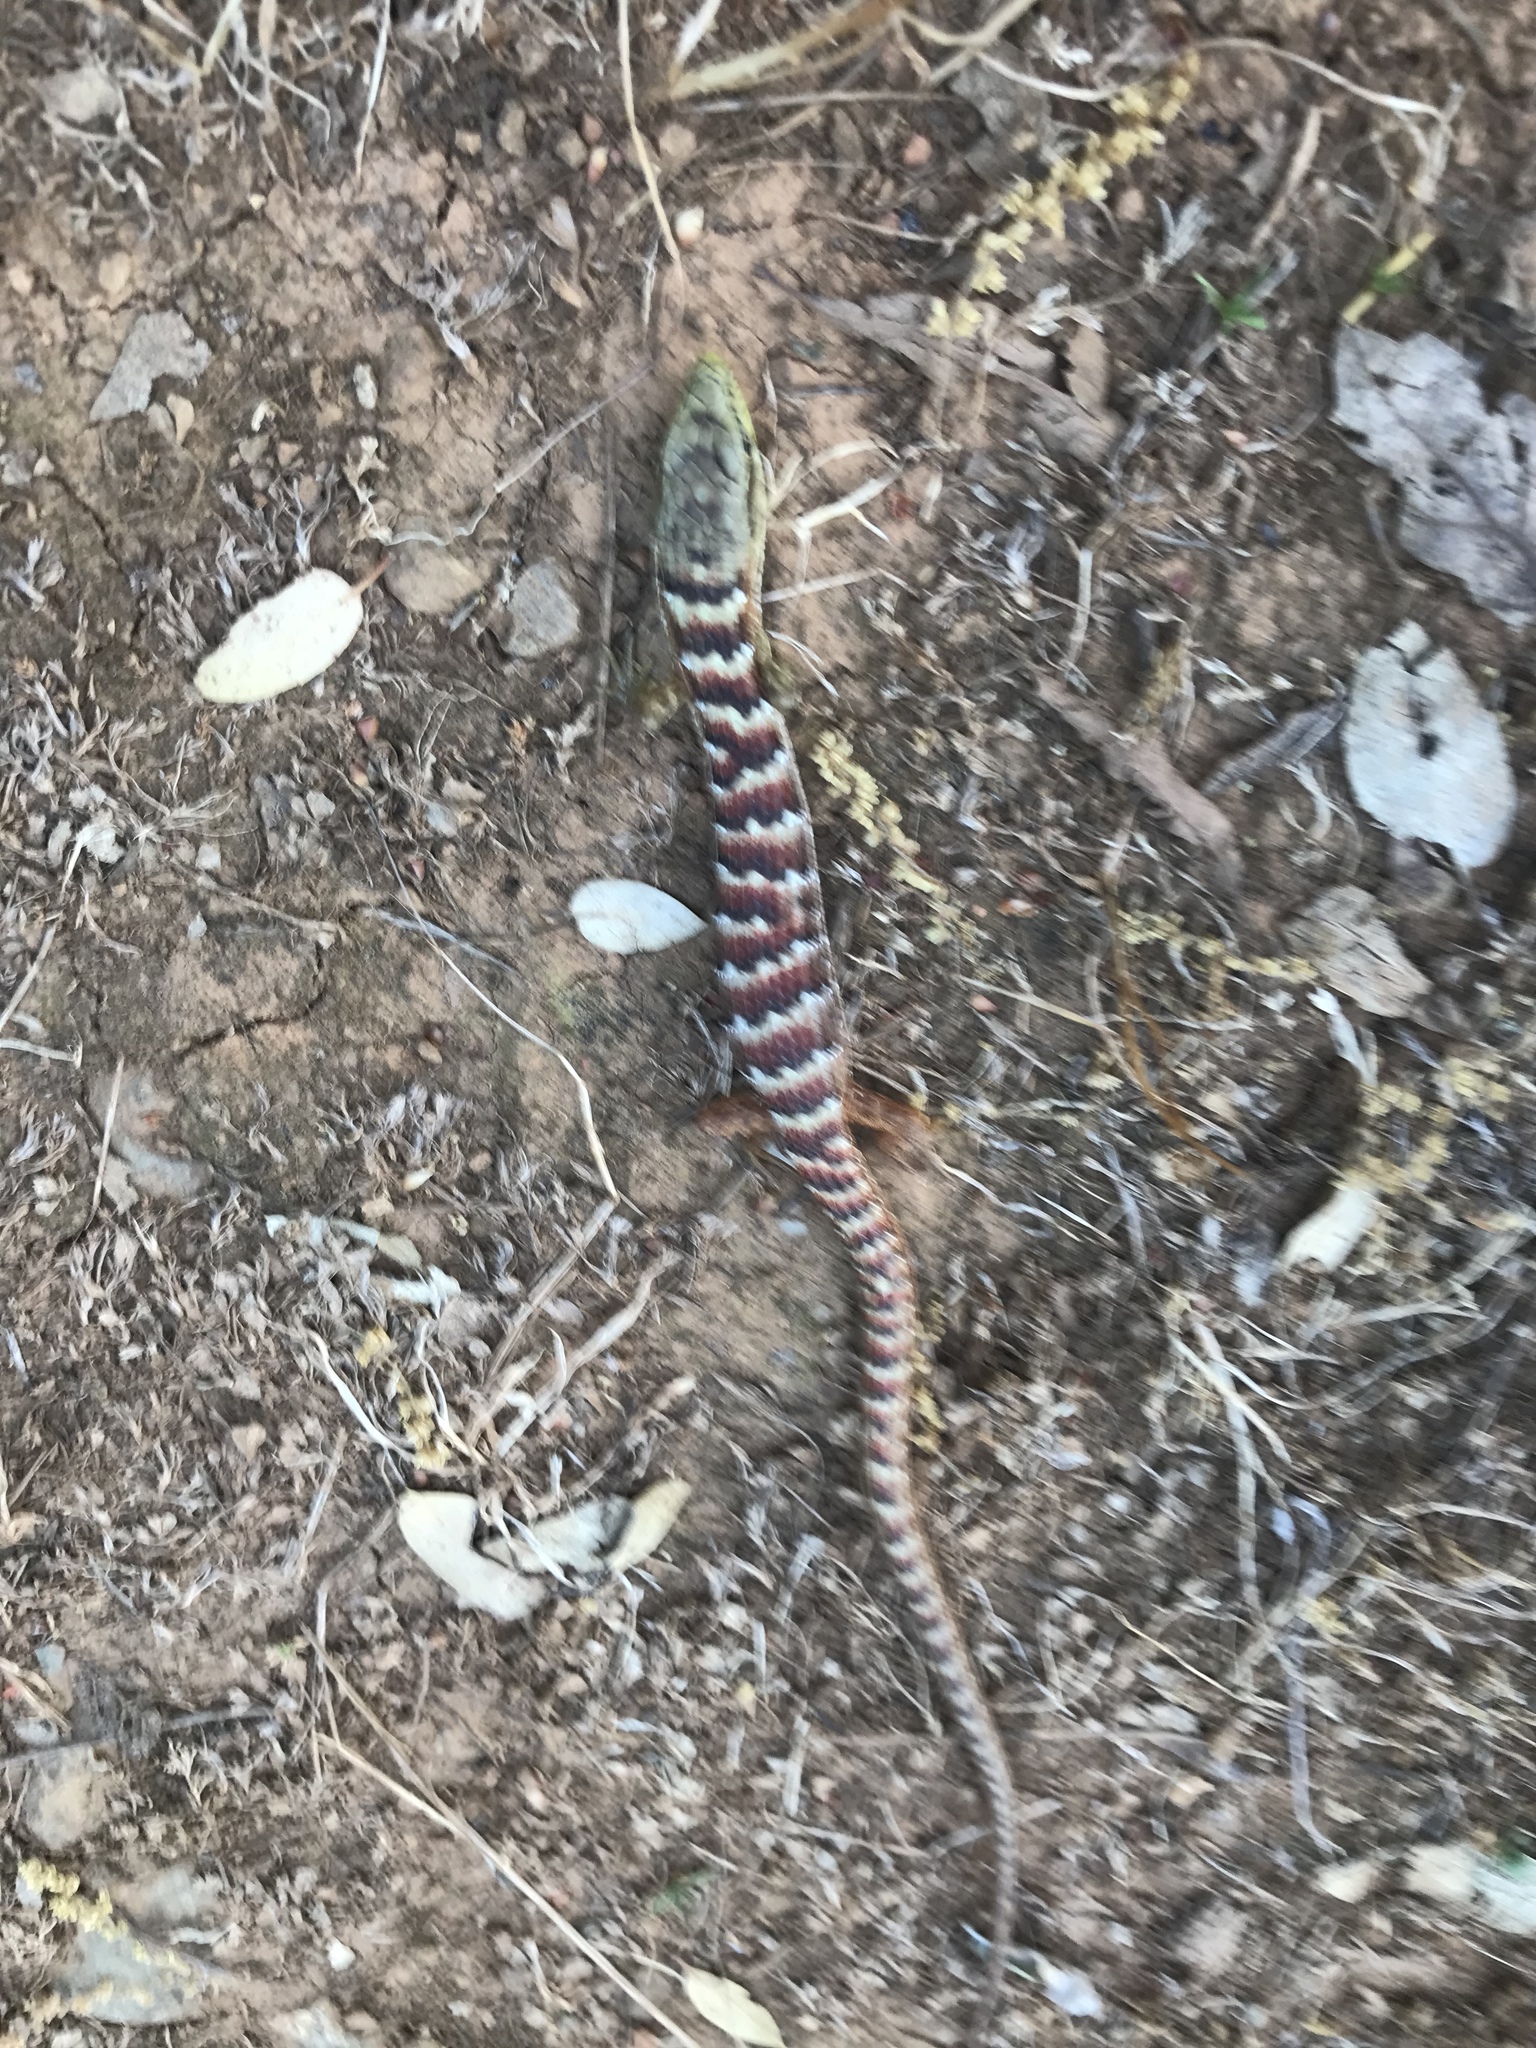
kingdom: Animalia
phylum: Chordata
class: Squamata
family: Anguidae
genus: Elgaria
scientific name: Elgaria multicarinata
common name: Southern alligator lizard
